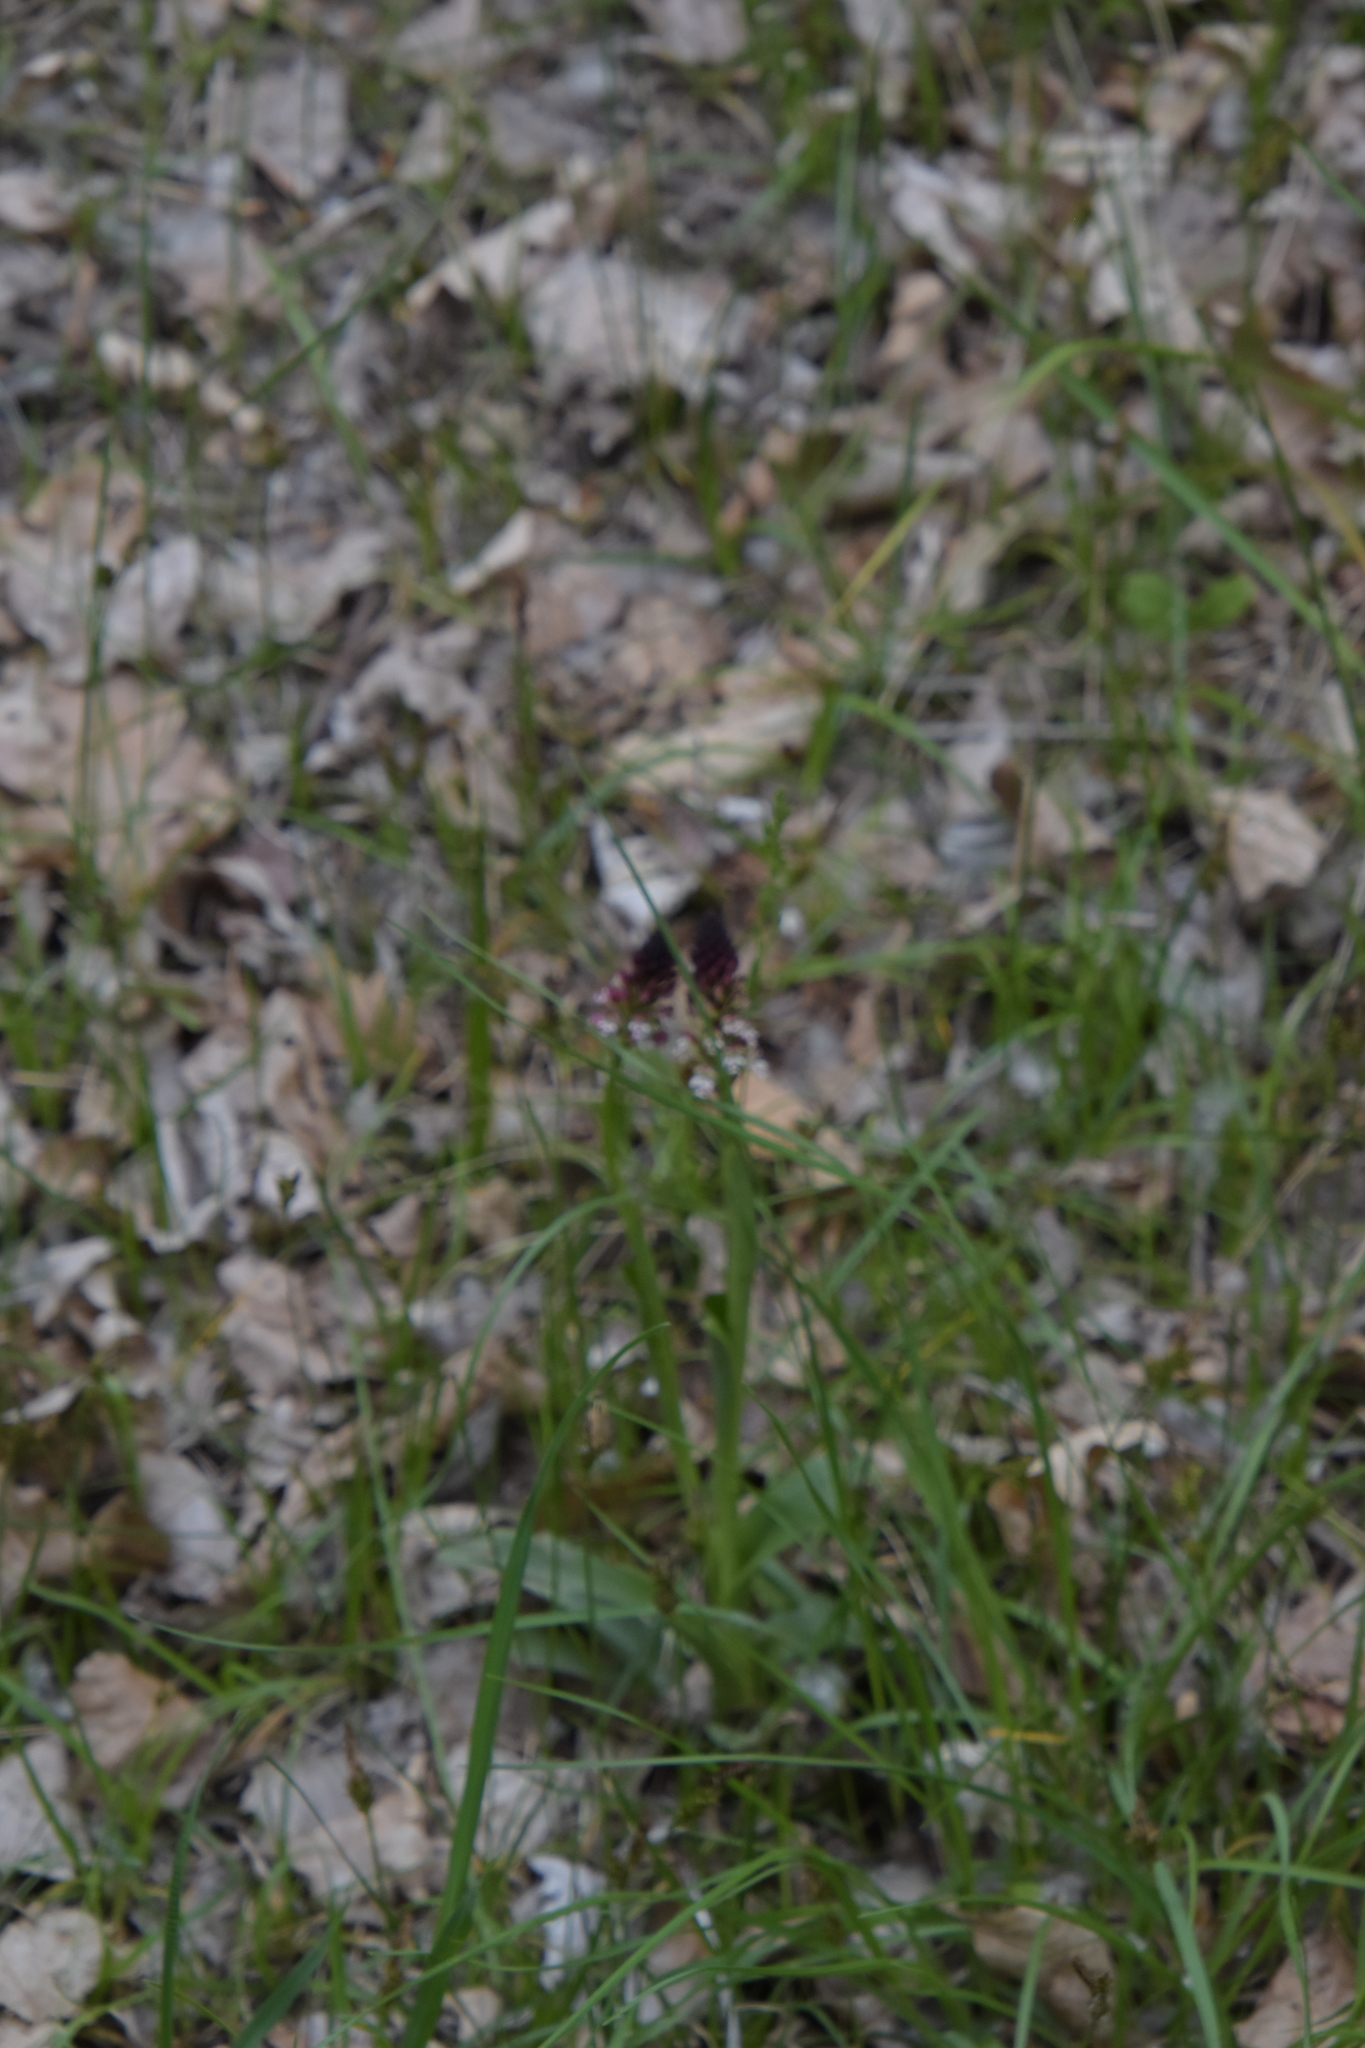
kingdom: Plantae
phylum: Tracheophyta
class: Liliopsida
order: Asparagales
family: Orchidaceae
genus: Neotinea
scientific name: Neotinea ustulata
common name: Burnt orchid
